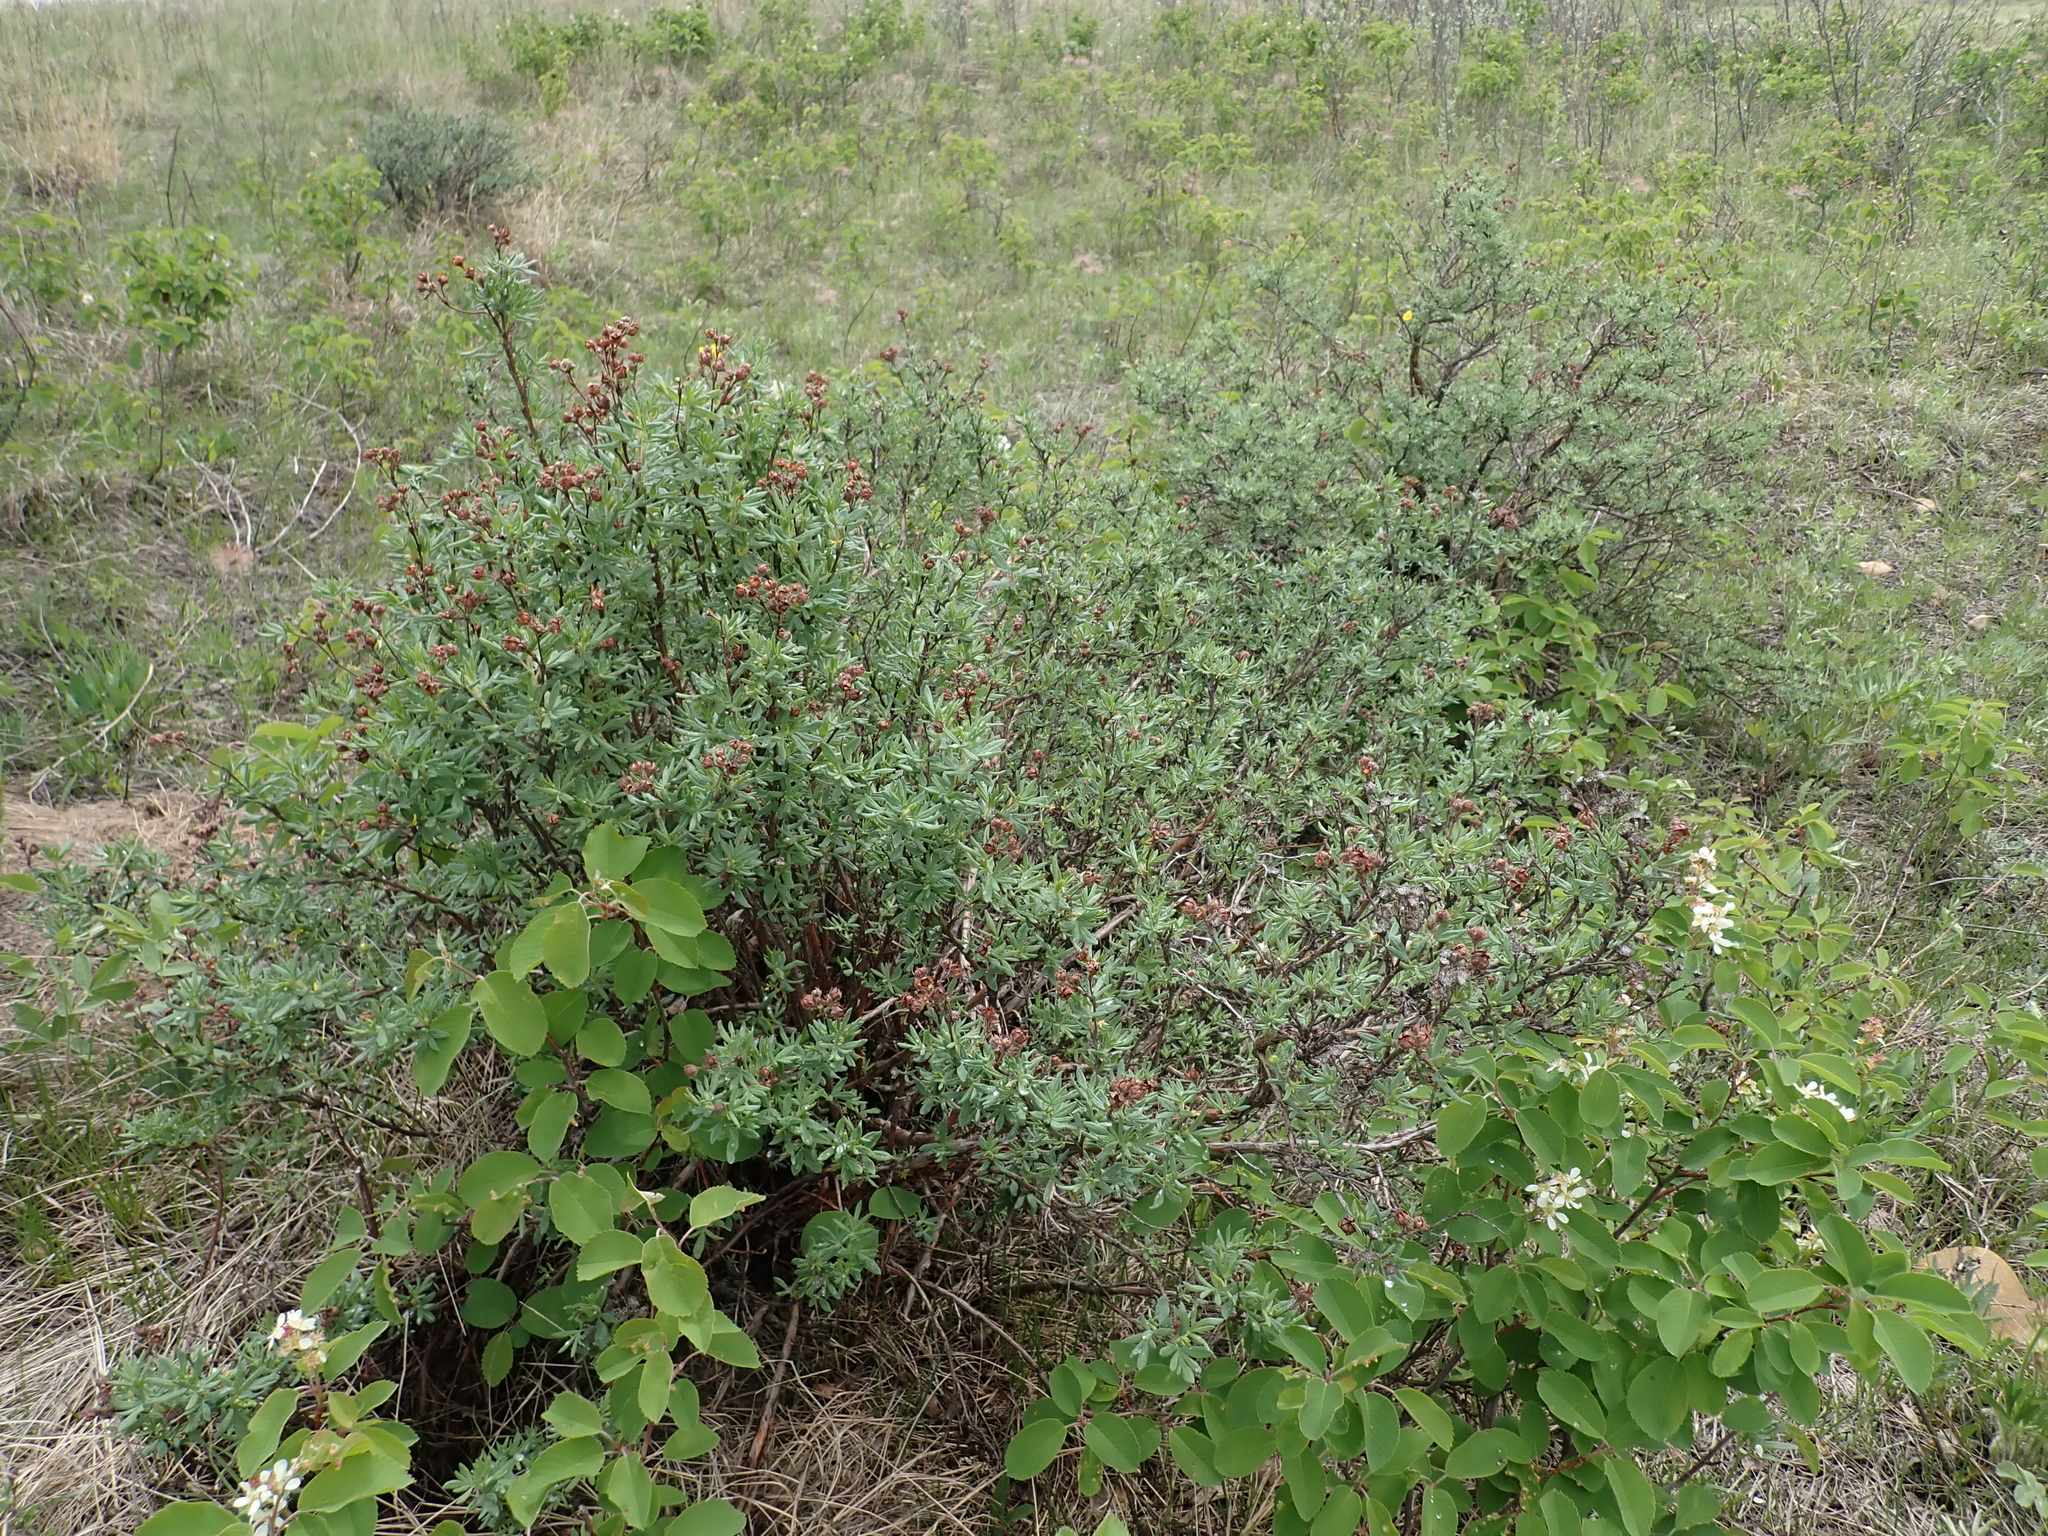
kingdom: Plantae
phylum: Tracheophyta
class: Magnoliopsida
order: Rosales
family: Rosaceae
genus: Dasiphora
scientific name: Dasiphora fruticosa
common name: Shrubby cinquefoil
